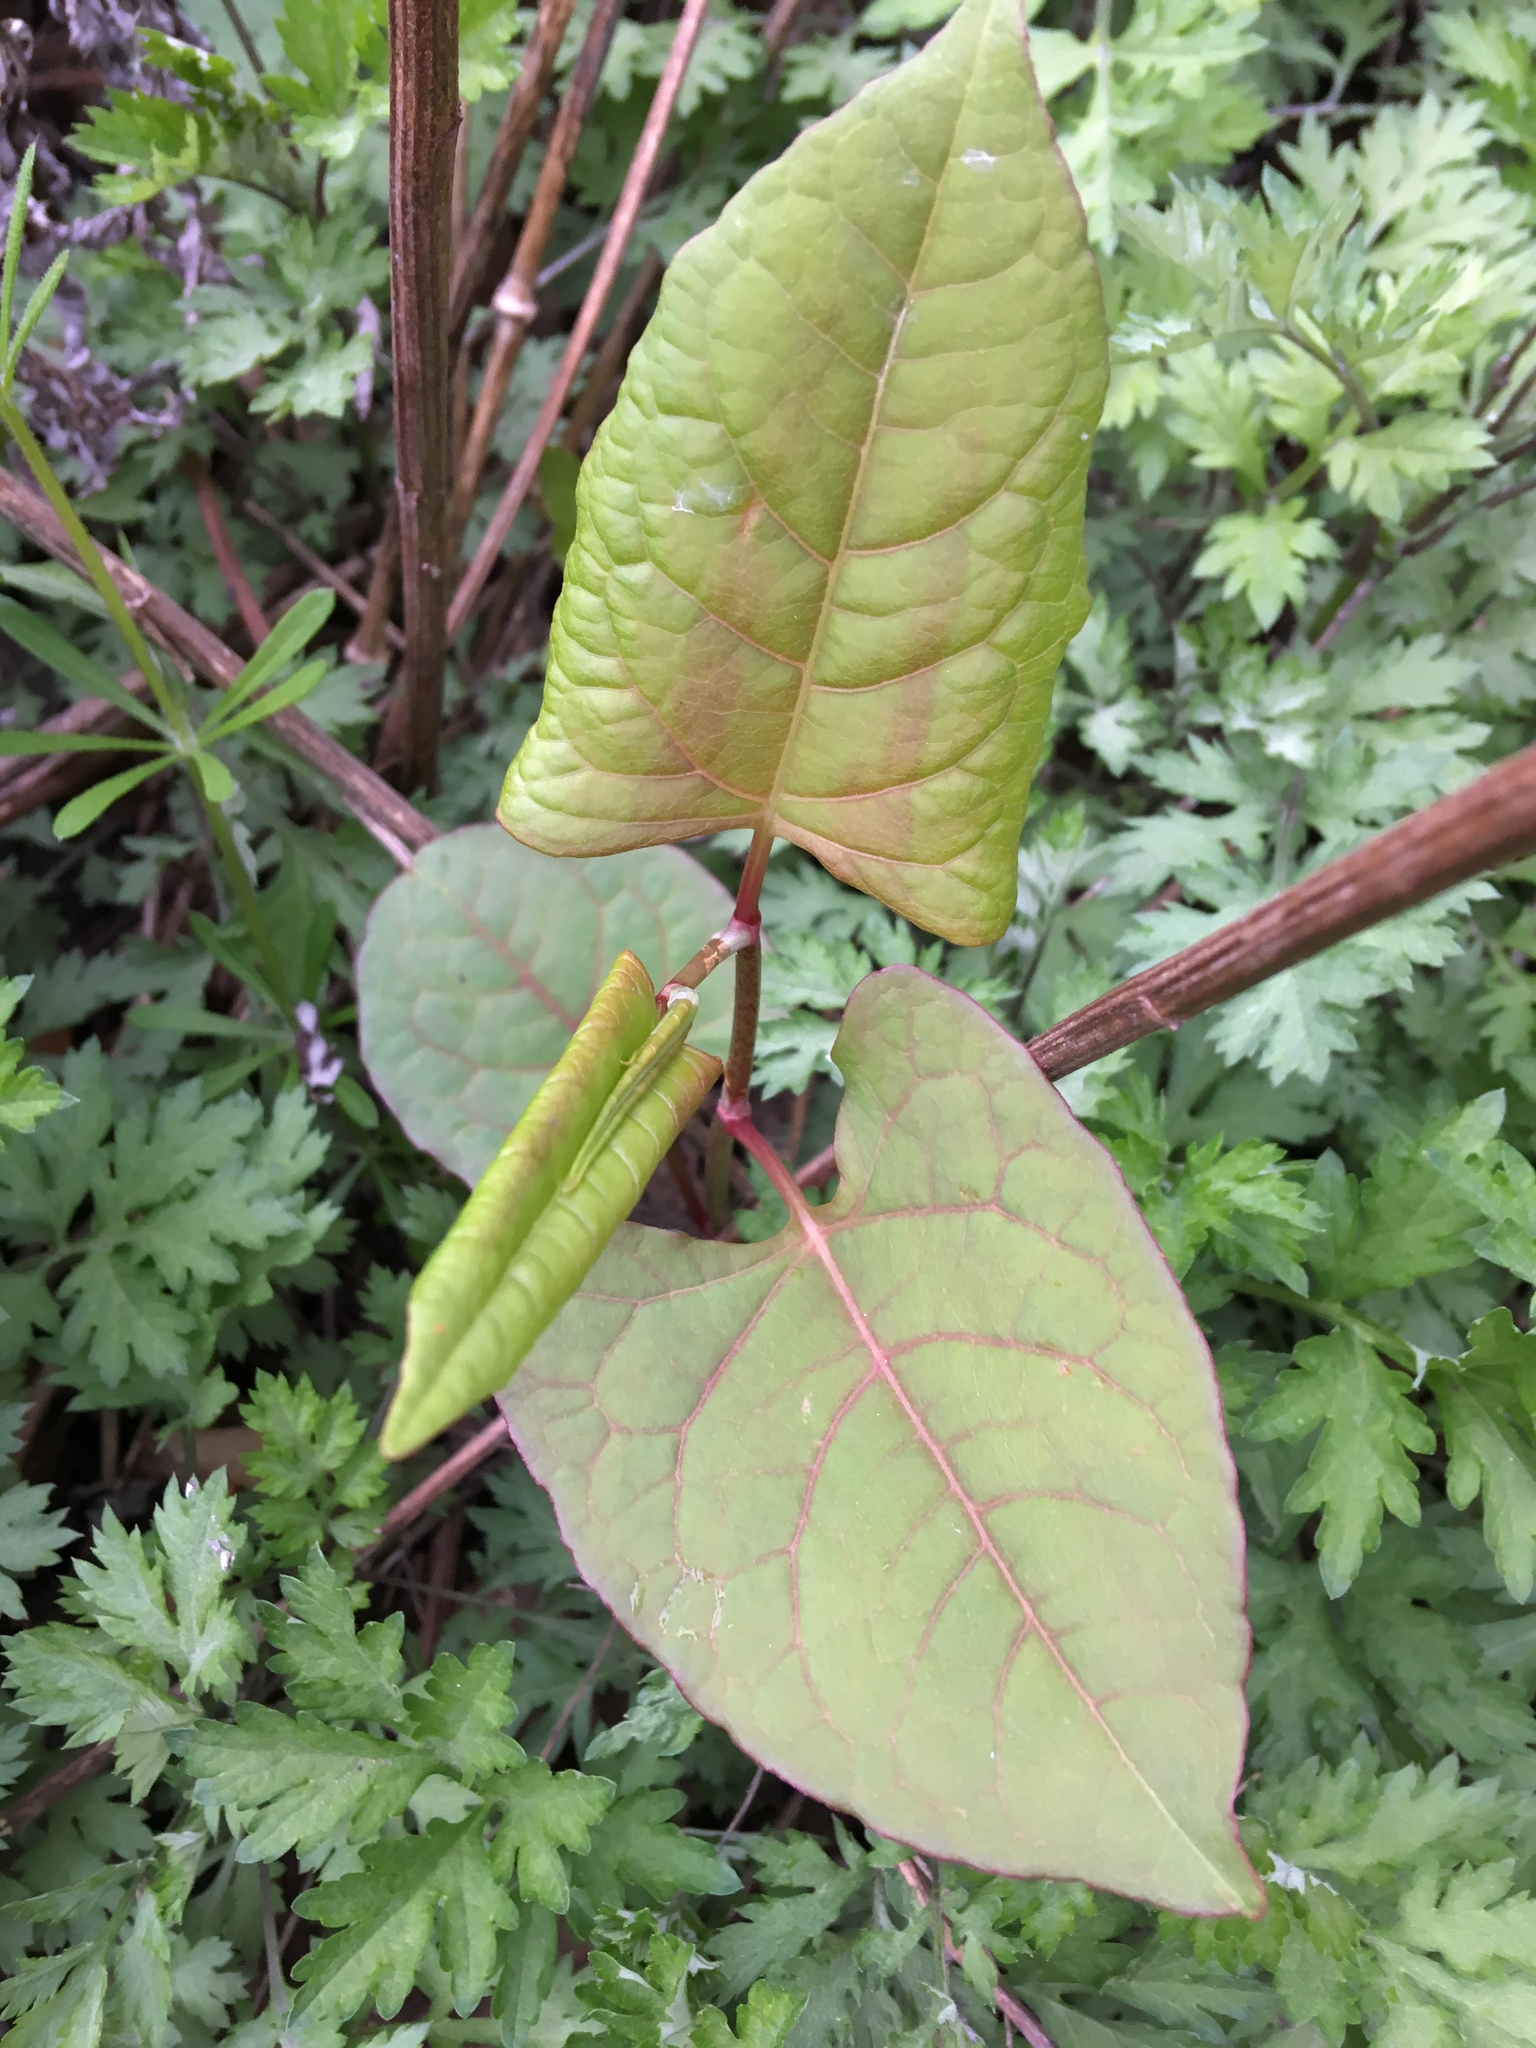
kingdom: Plantae
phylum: Tracheophyta
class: Magnoliopsida
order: Caryophyllales
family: Polygonaceae
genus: Reynoutria
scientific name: Reynoutria japonica
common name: Japanese knotweed
